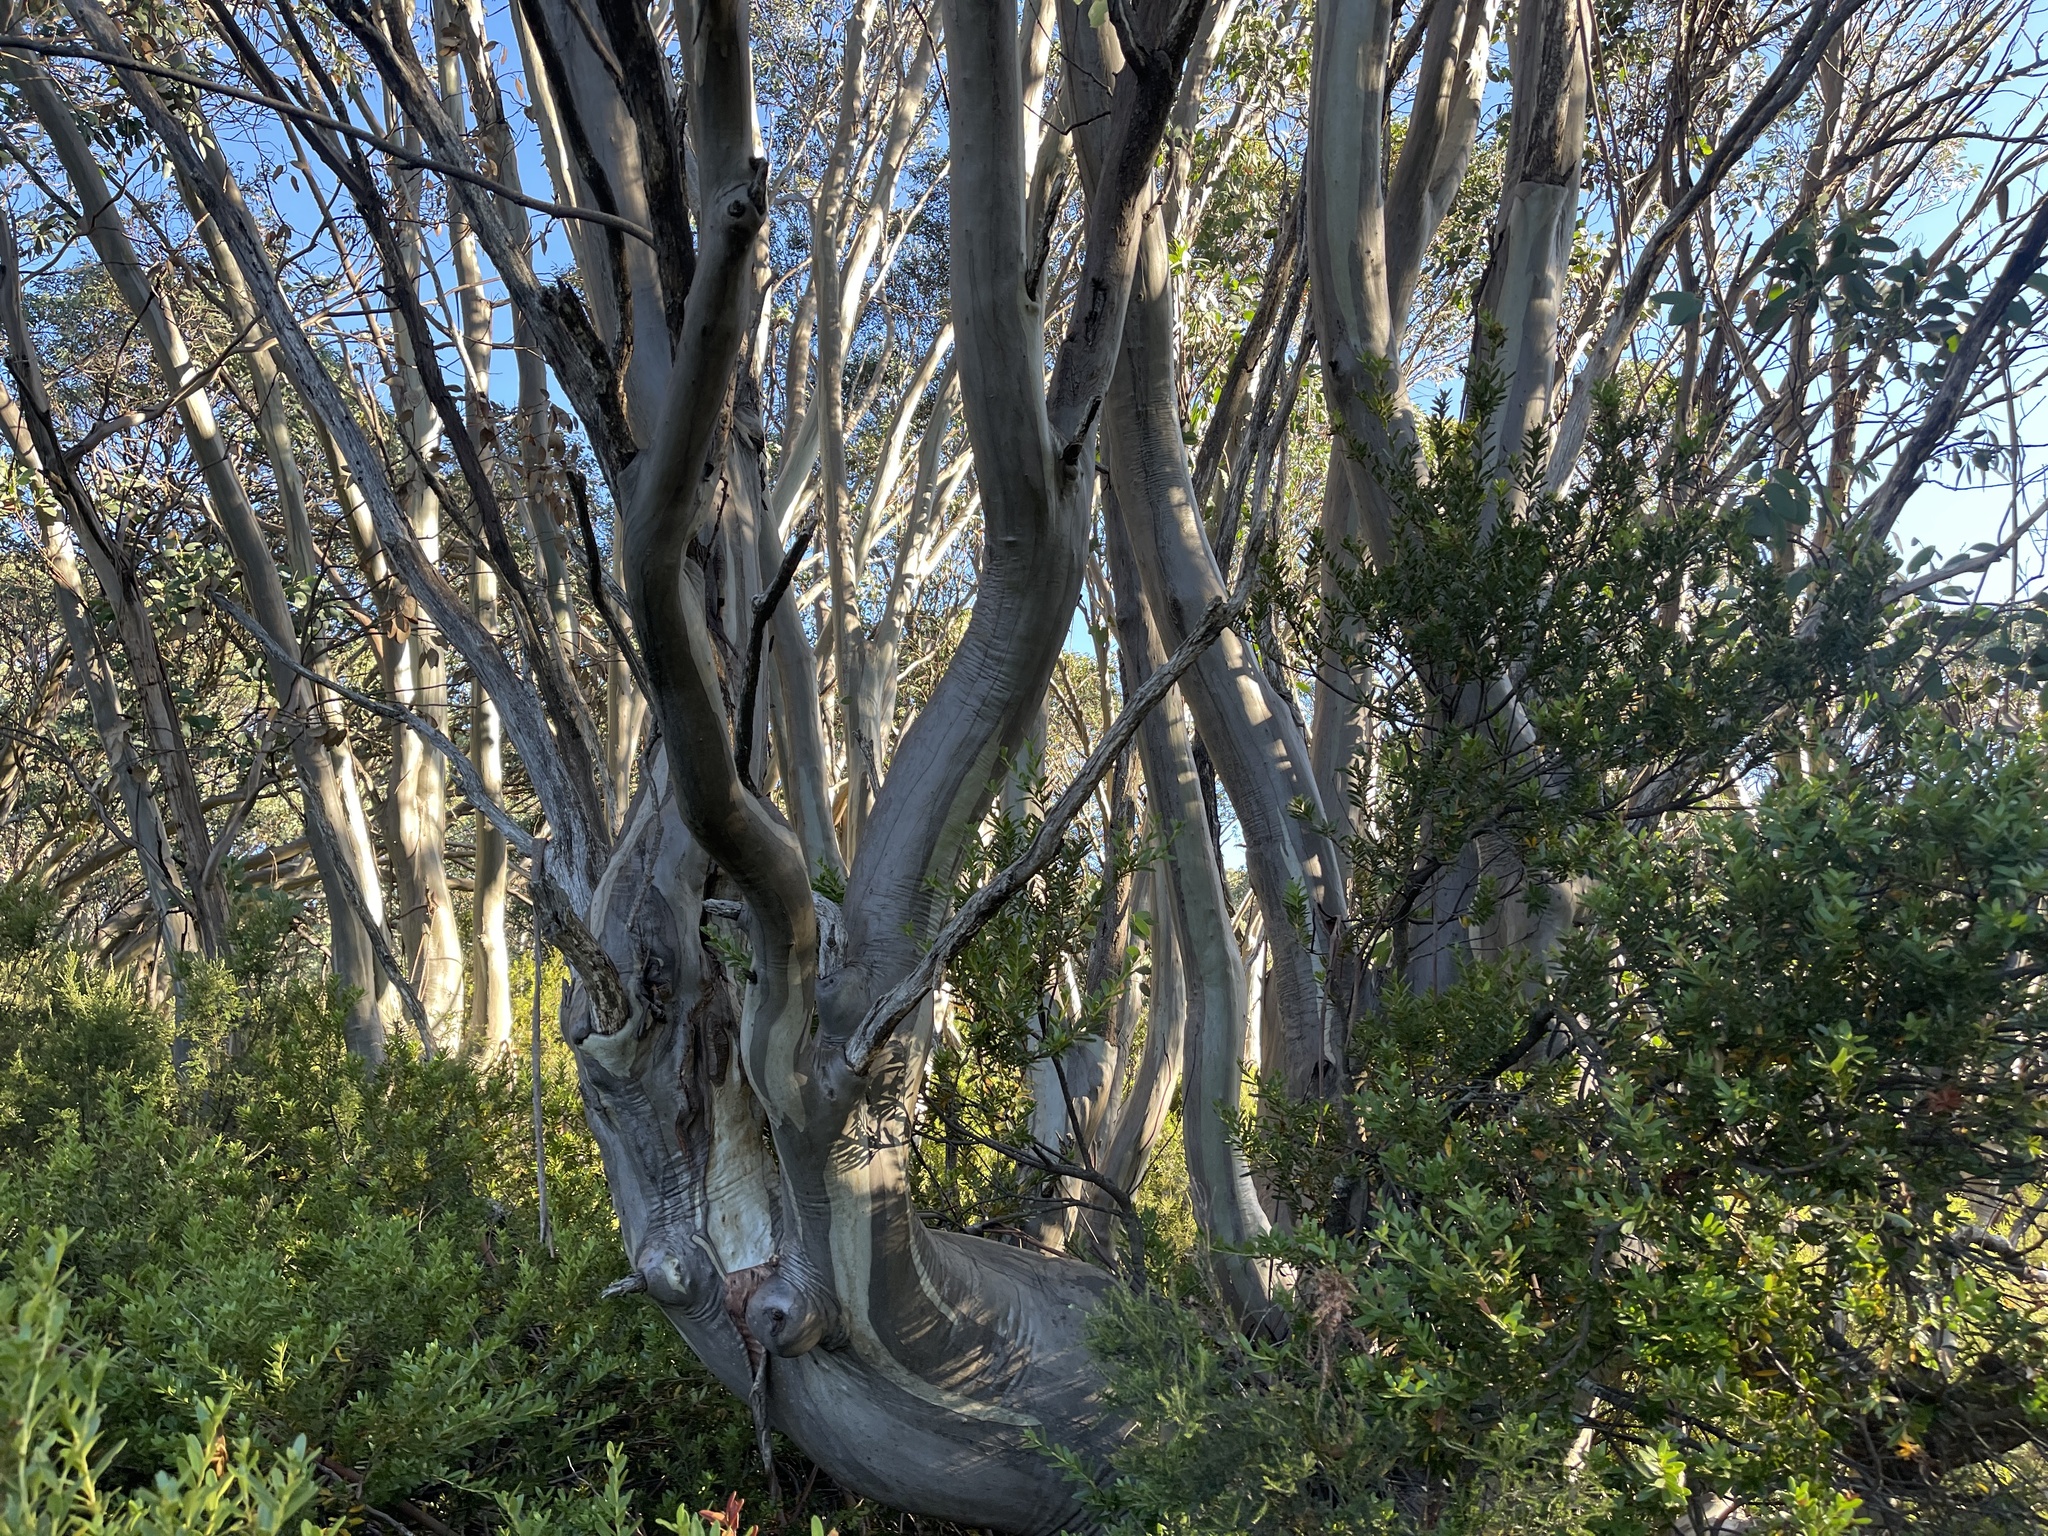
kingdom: Plantae
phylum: Tracheophyta
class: Magnoliopsida
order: Myrtales
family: Myrtaceae
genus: Eucalyptus
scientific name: Eucalyptus pauciflora
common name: Snow gum
